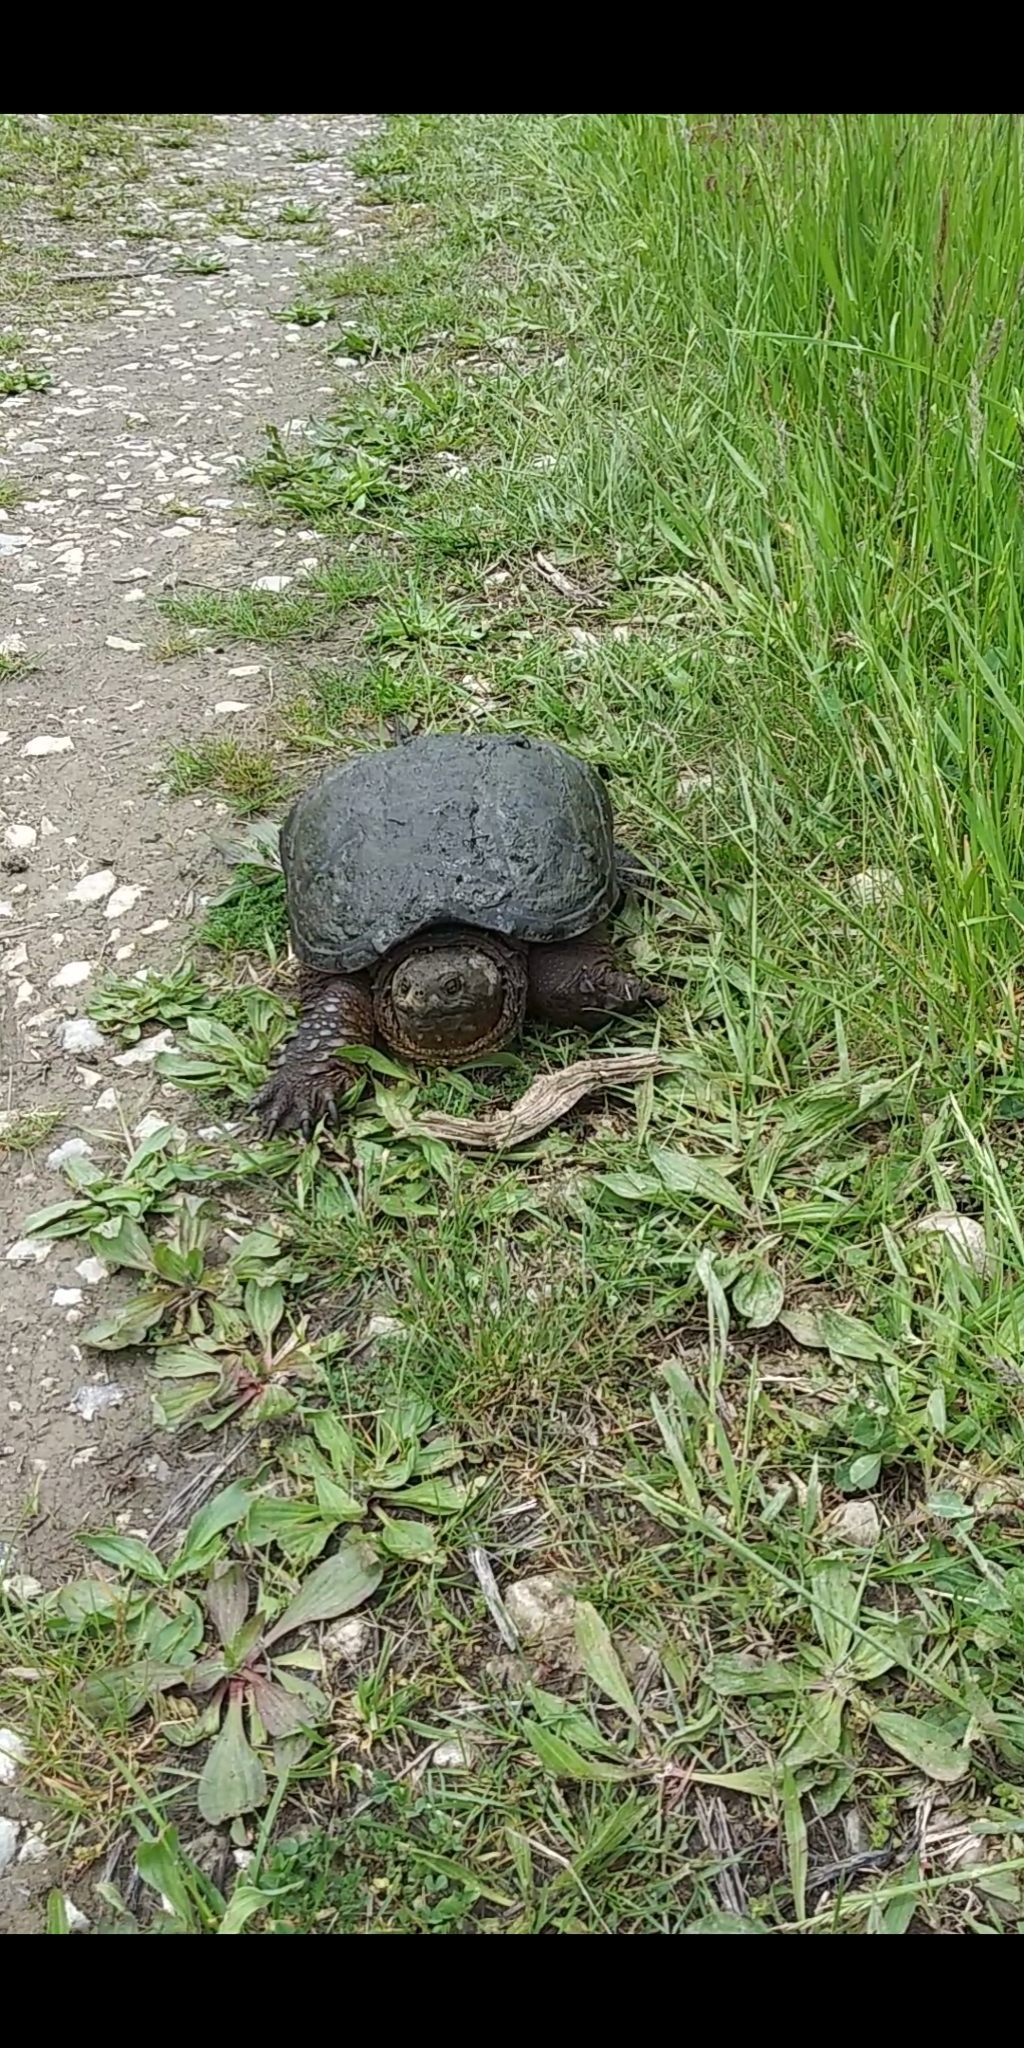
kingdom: Animalia
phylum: Chordata
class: Testudines
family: Chelydridae
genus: Chelydra
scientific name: Chelydra serpentina
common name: Common snapping turtle
